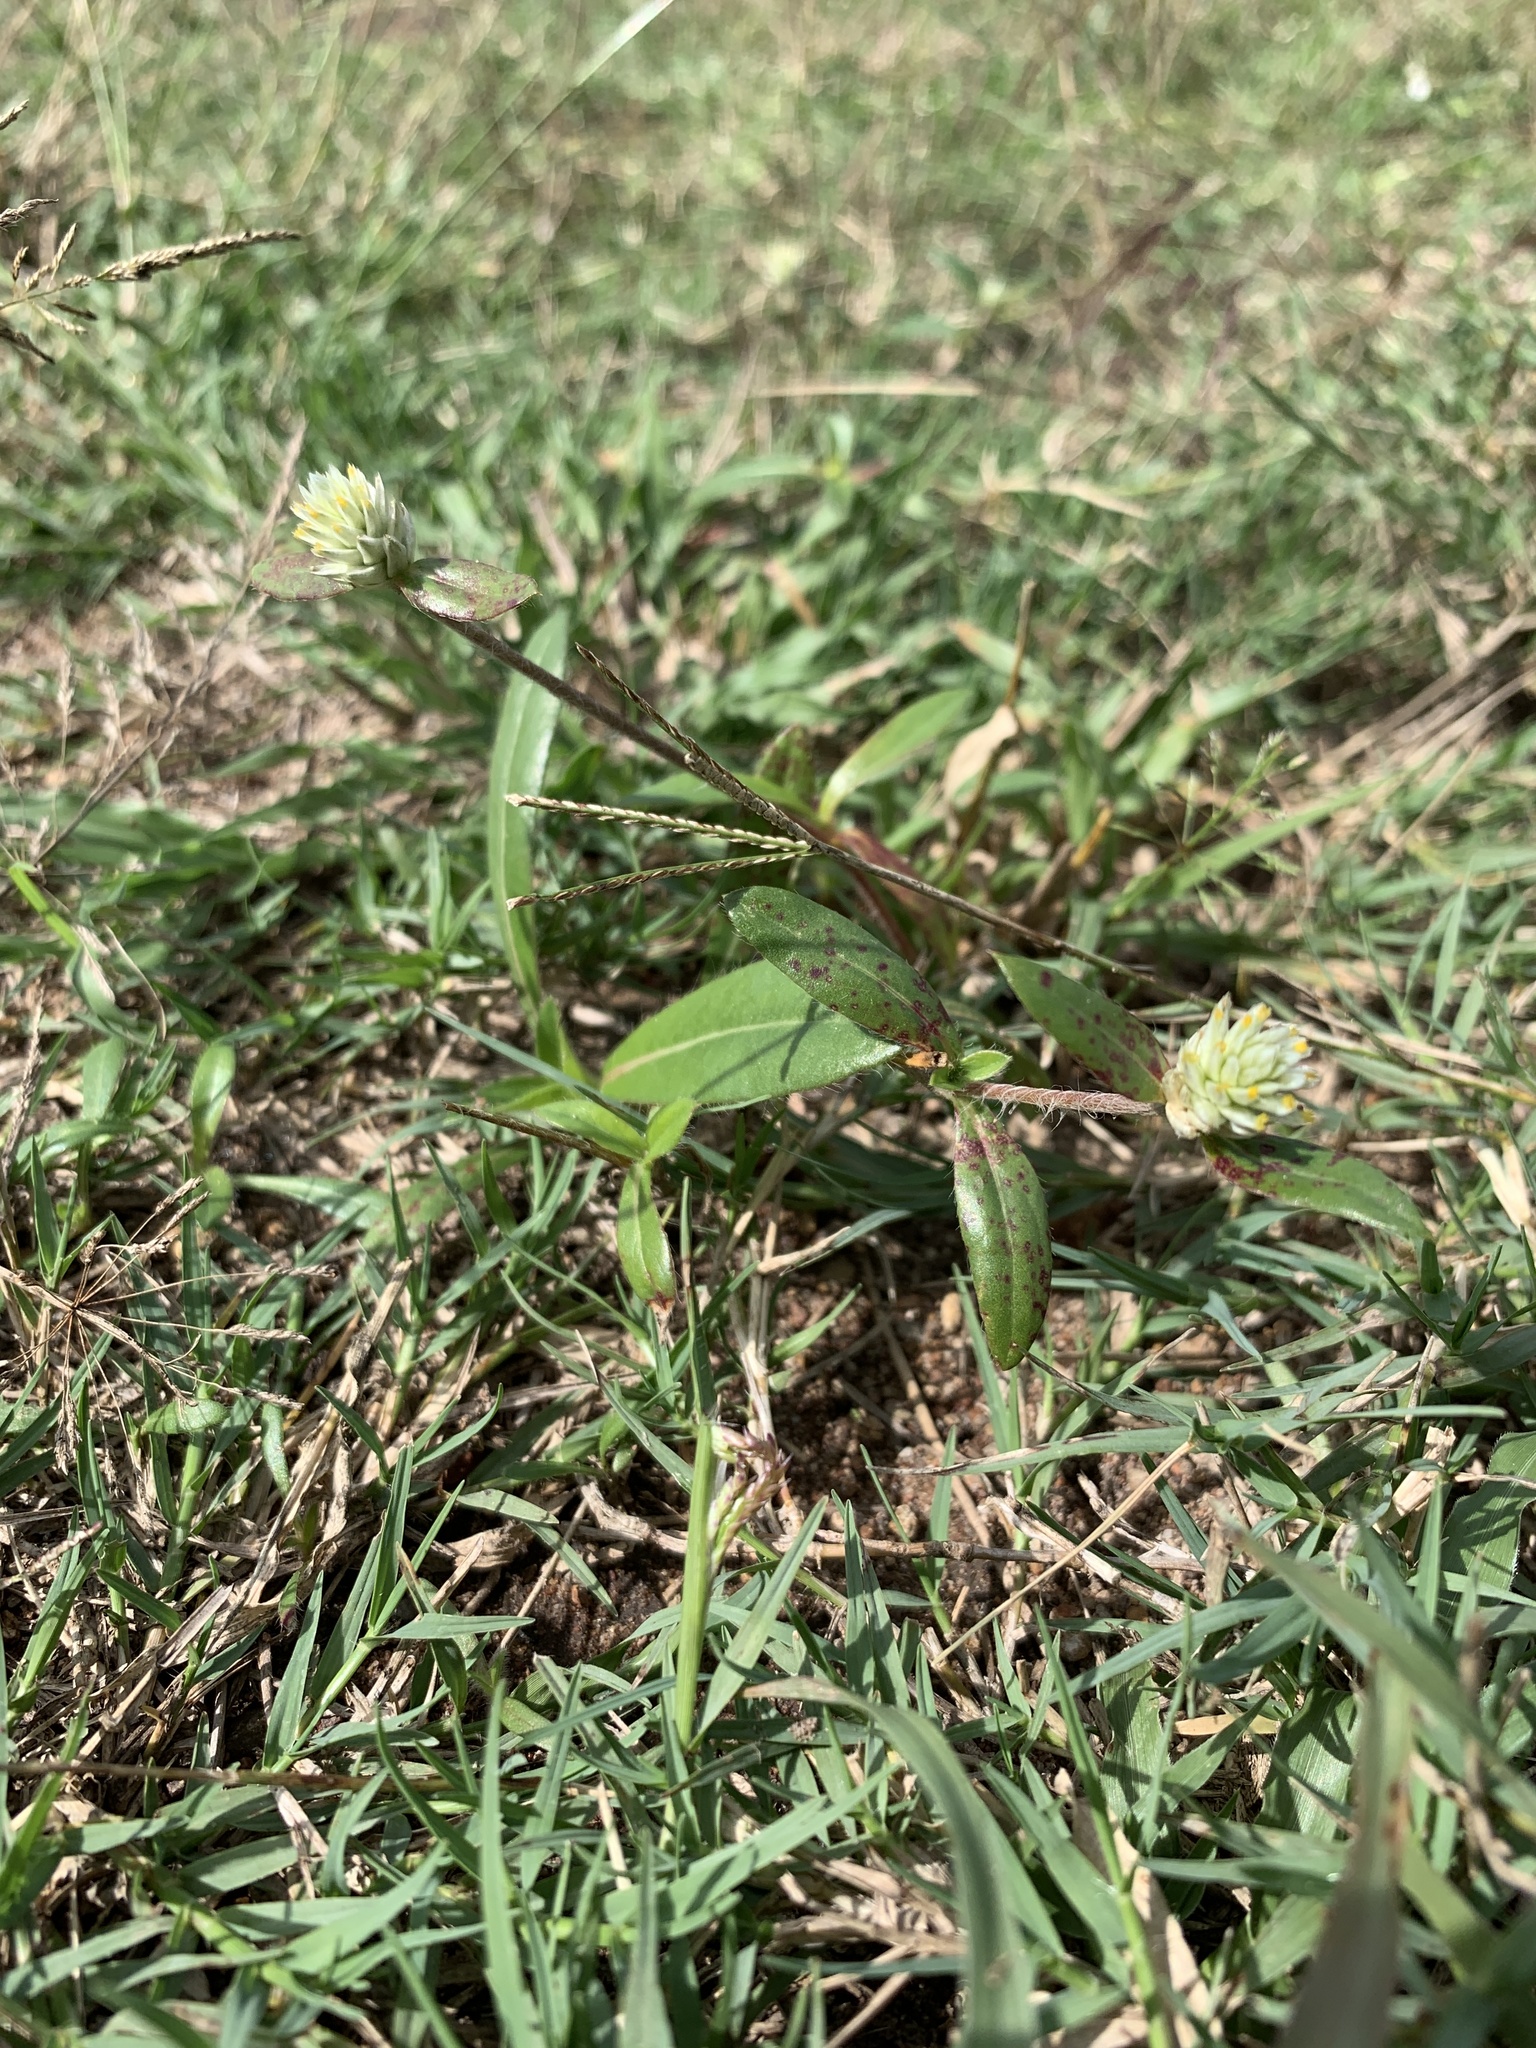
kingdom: Plantae
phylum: Tracheophyta
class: Magnoliopsida
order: Caryophyllales
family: Amaranthaceae
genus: Gomphrena
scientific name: Gomphrena celosioides
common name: Gomphrena-weed
